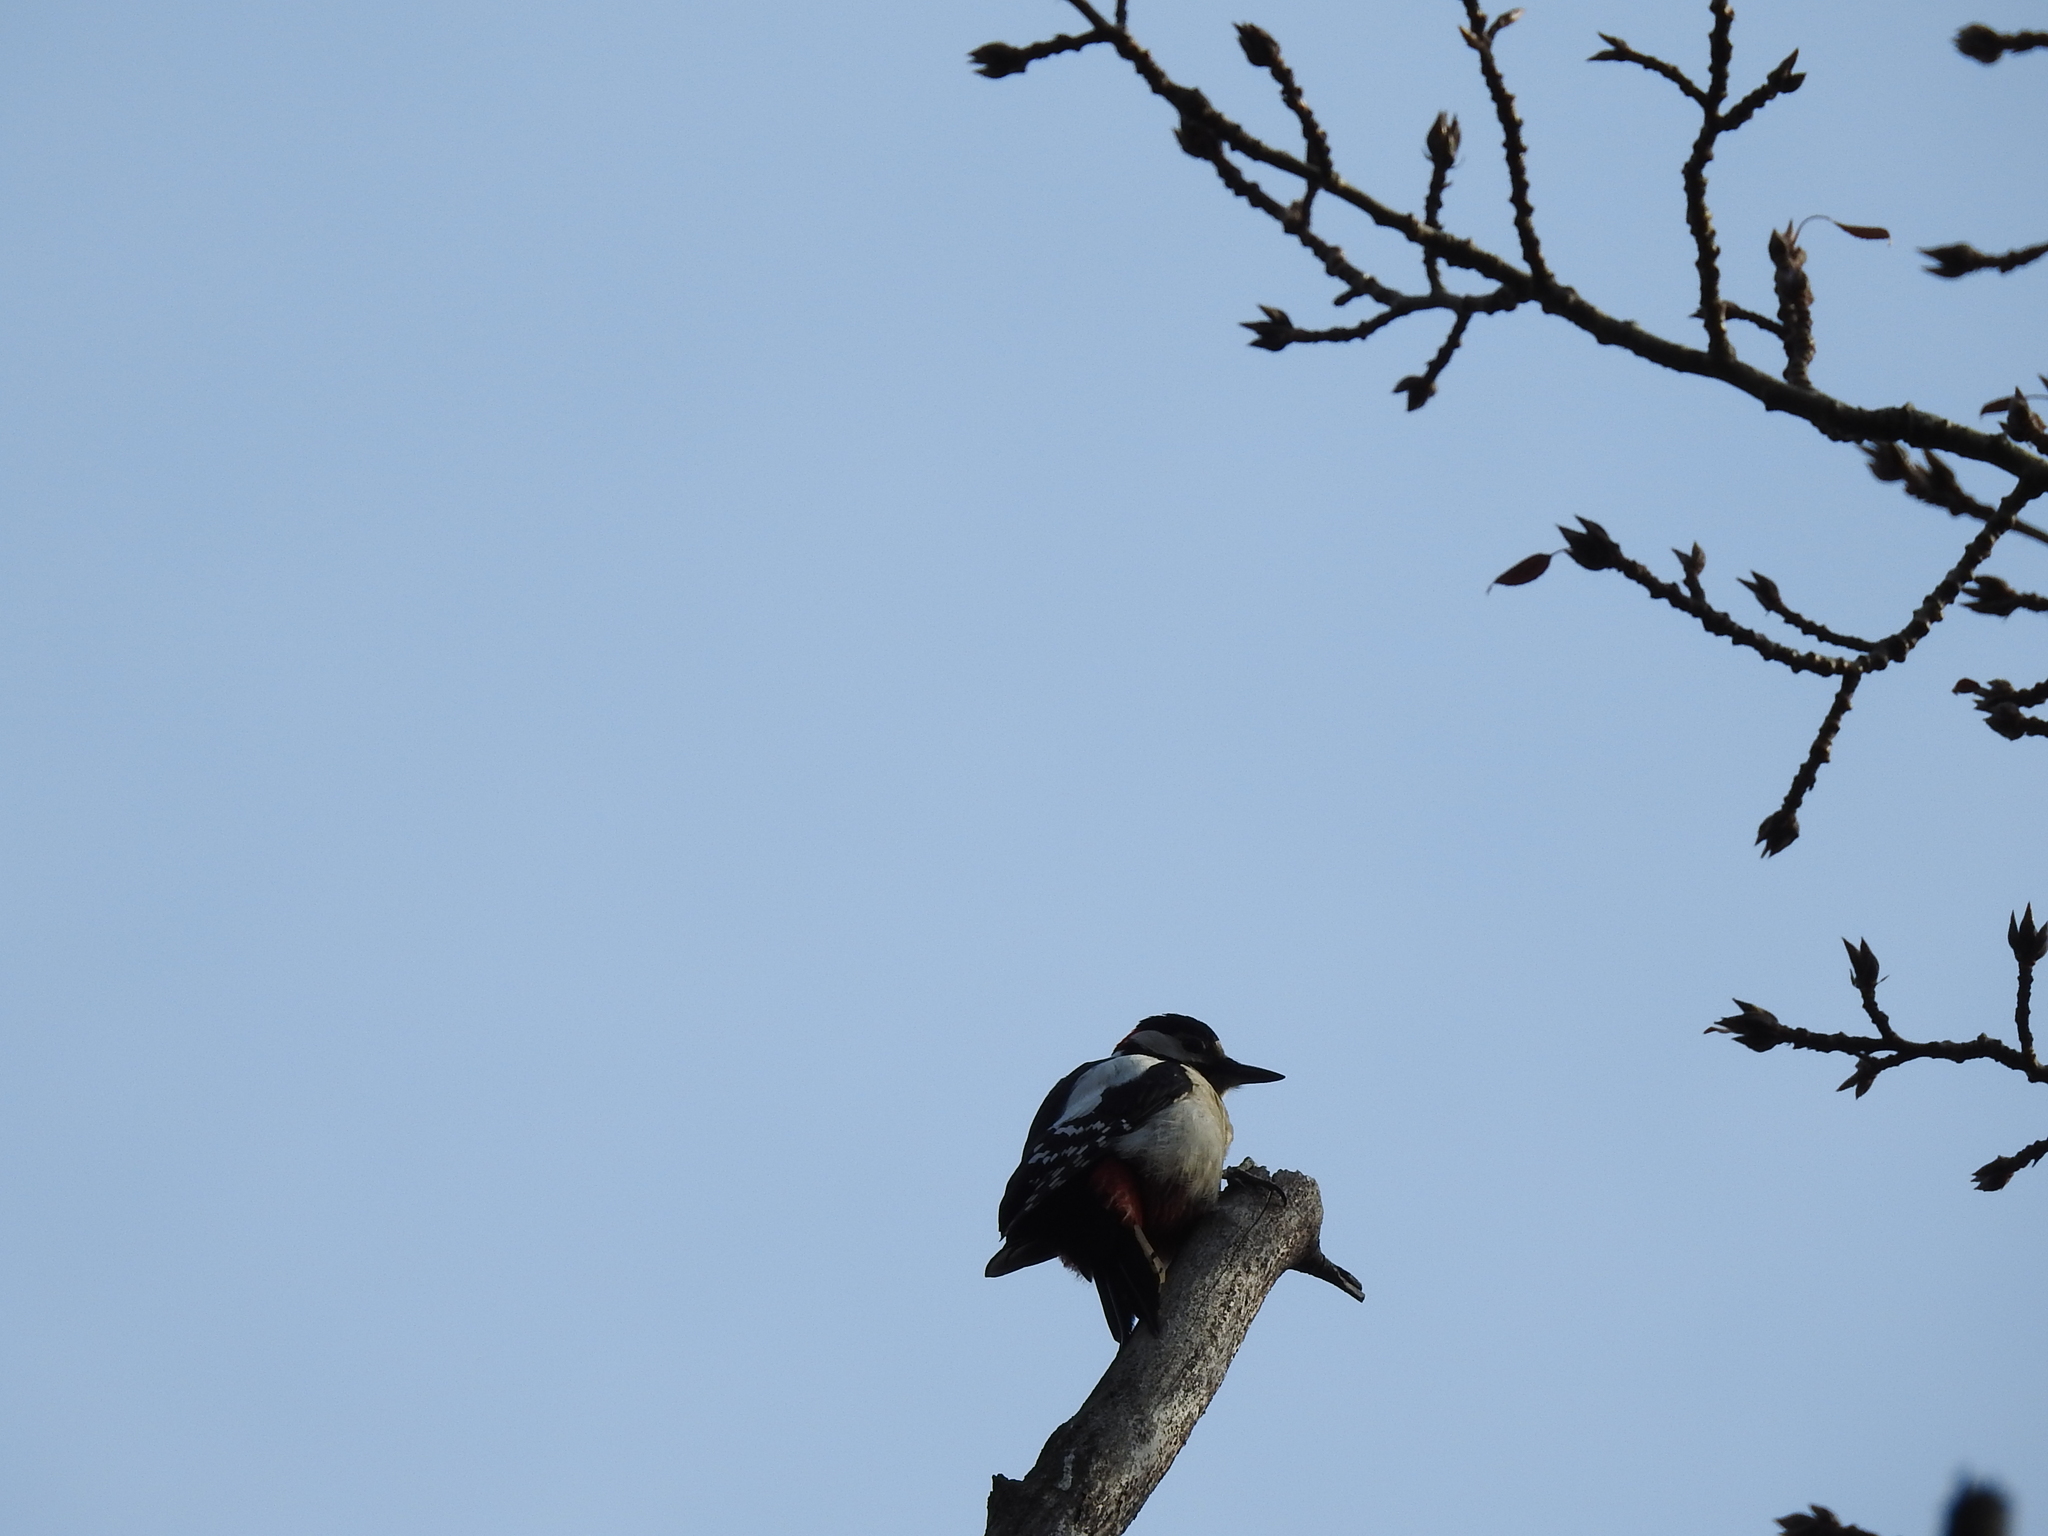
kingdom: Animalia
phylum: Chordata
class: Aves
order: Piciformes
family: Picidae
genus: Dendrocopos
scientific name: Dendrocopos major
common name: Great spotted woodpecker
